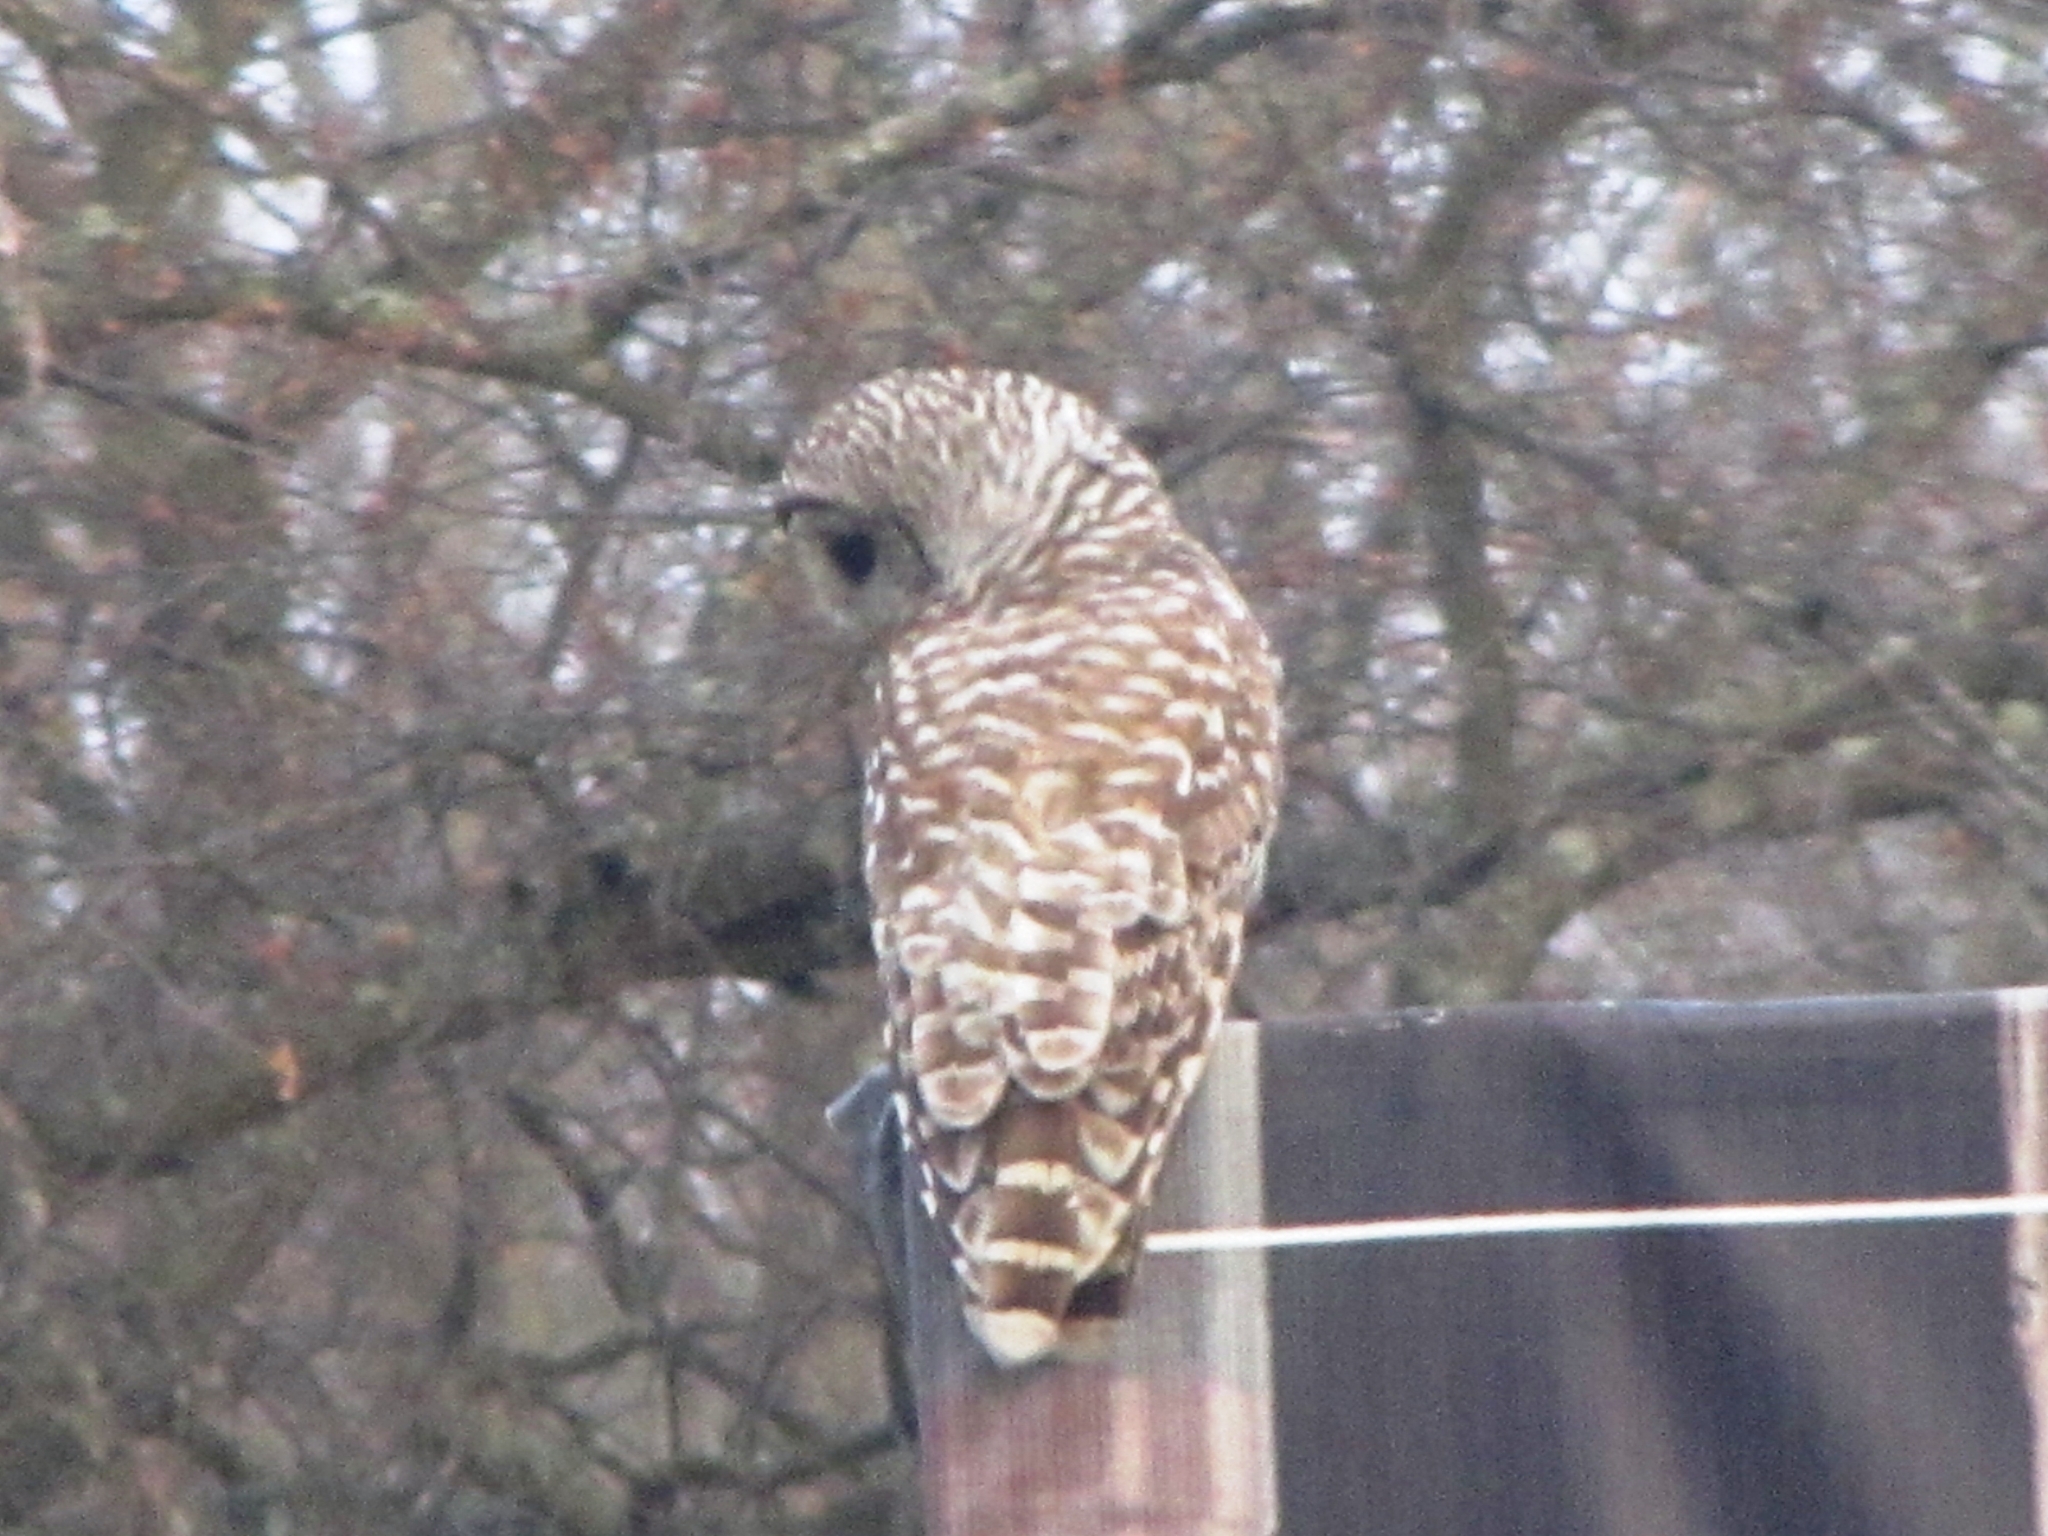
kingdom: Animalia
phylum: Chordata
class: Aves
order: Strigiformes
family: Strigidae
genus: Strix
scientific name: Strix varia
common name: Barred owl
